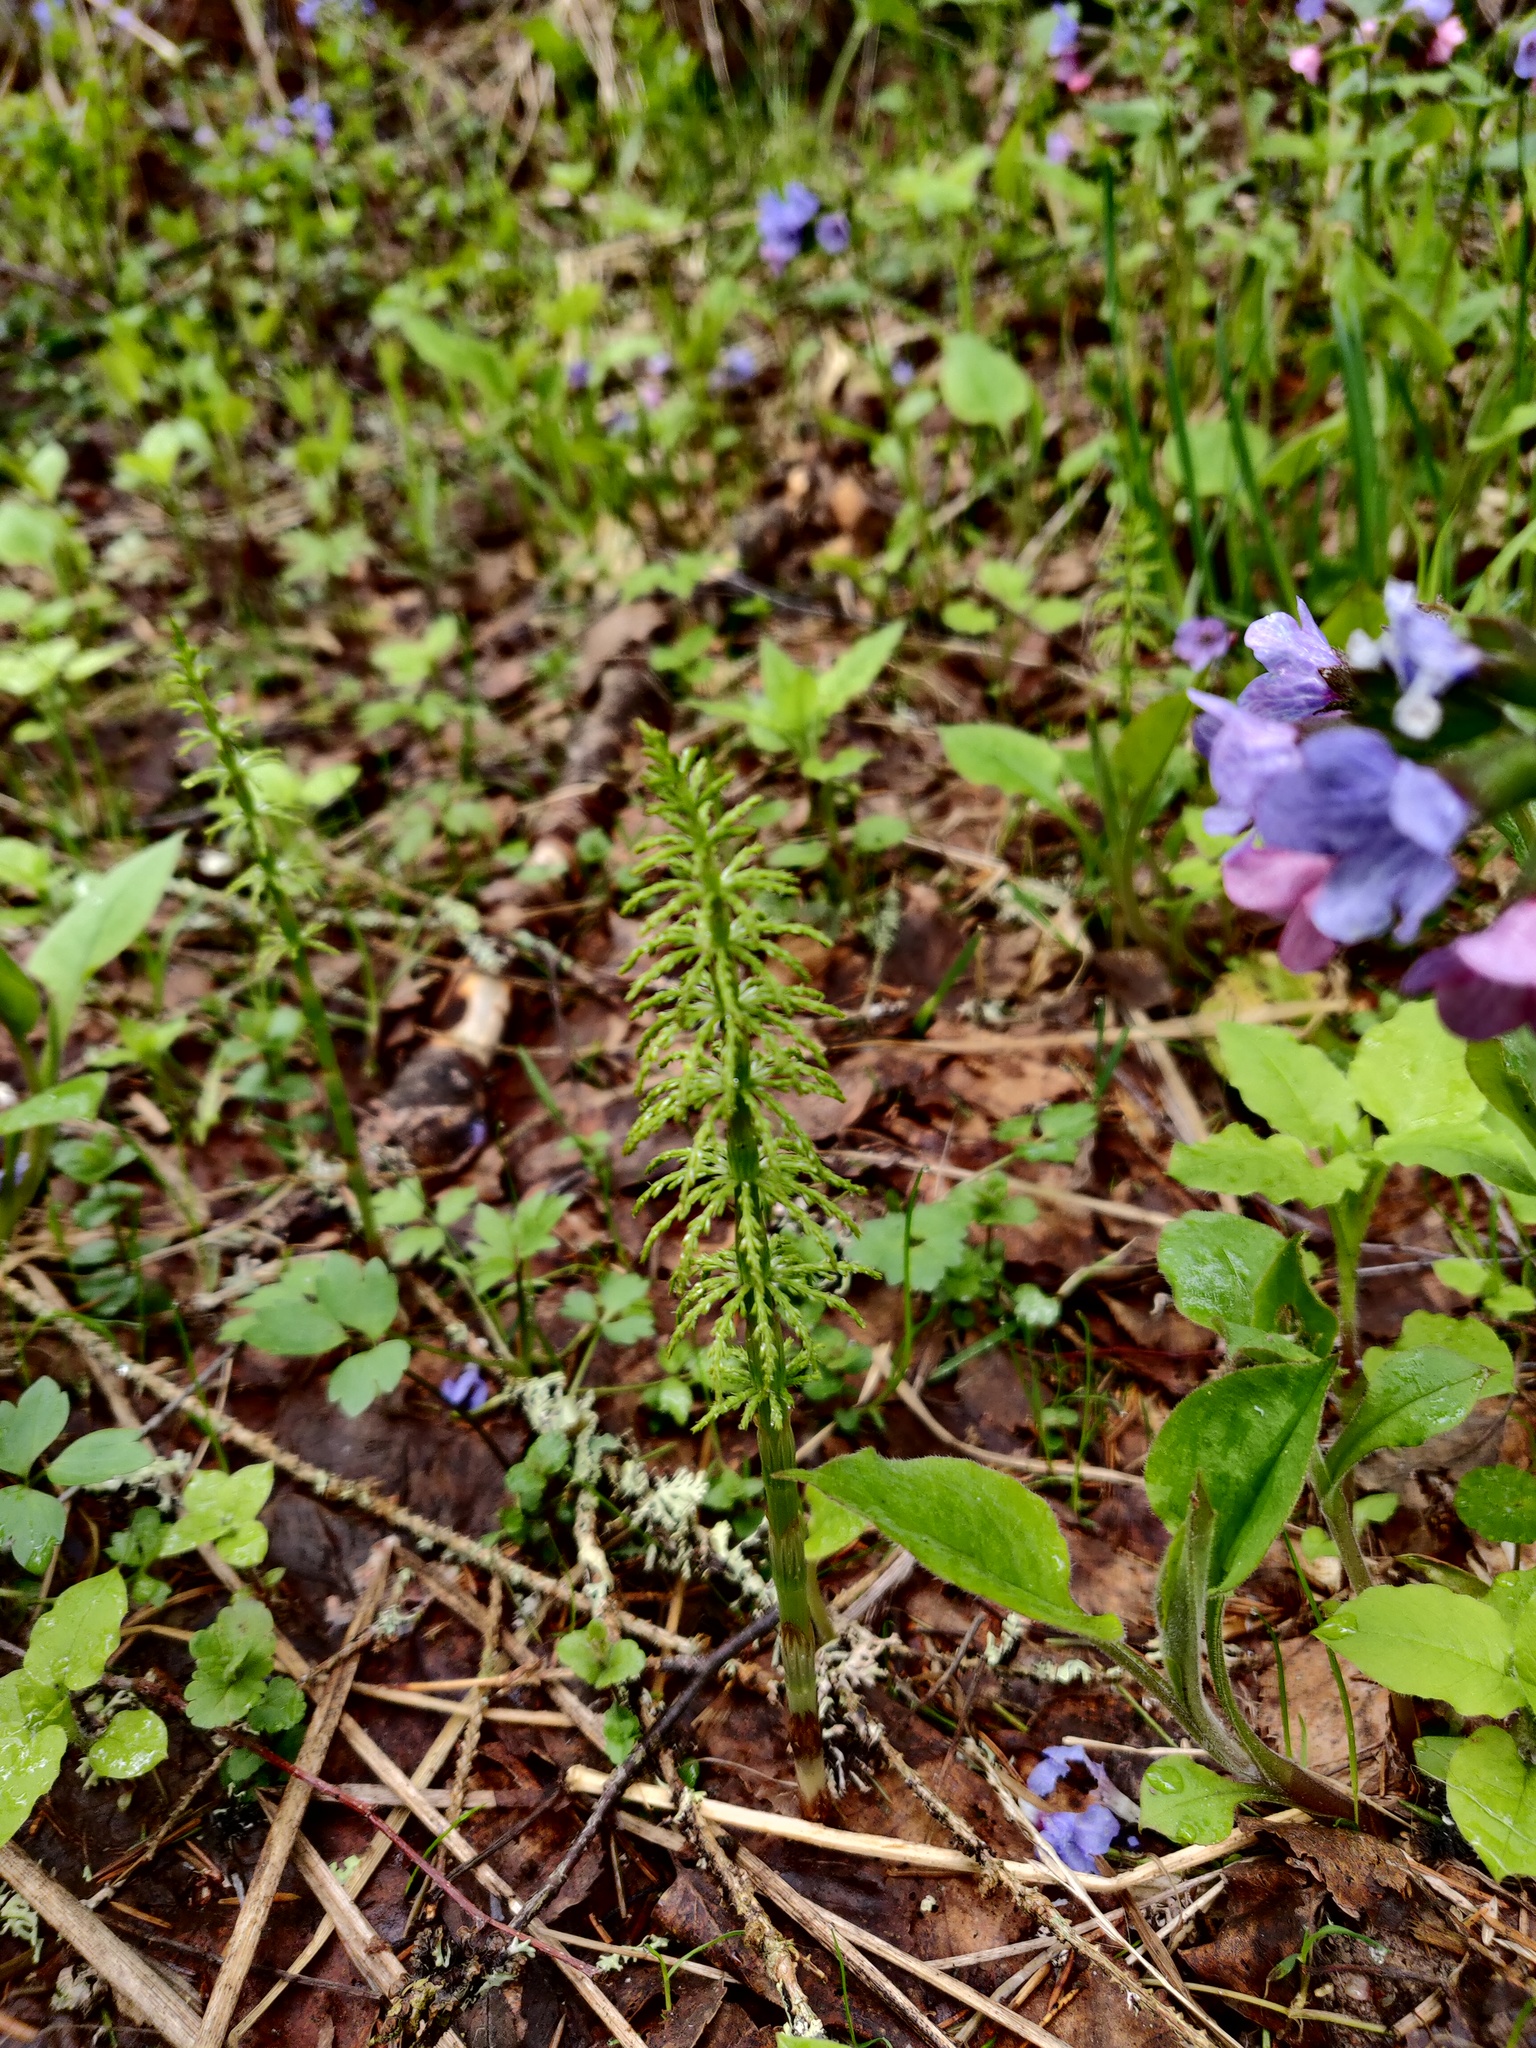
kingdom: Plantae
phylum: Tracheophyta
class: Polypodiopsida
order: Equisetales
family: Equisetaceae
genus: Equisetum
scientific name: Equisetum sylvaticum
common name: Wood horsetail
